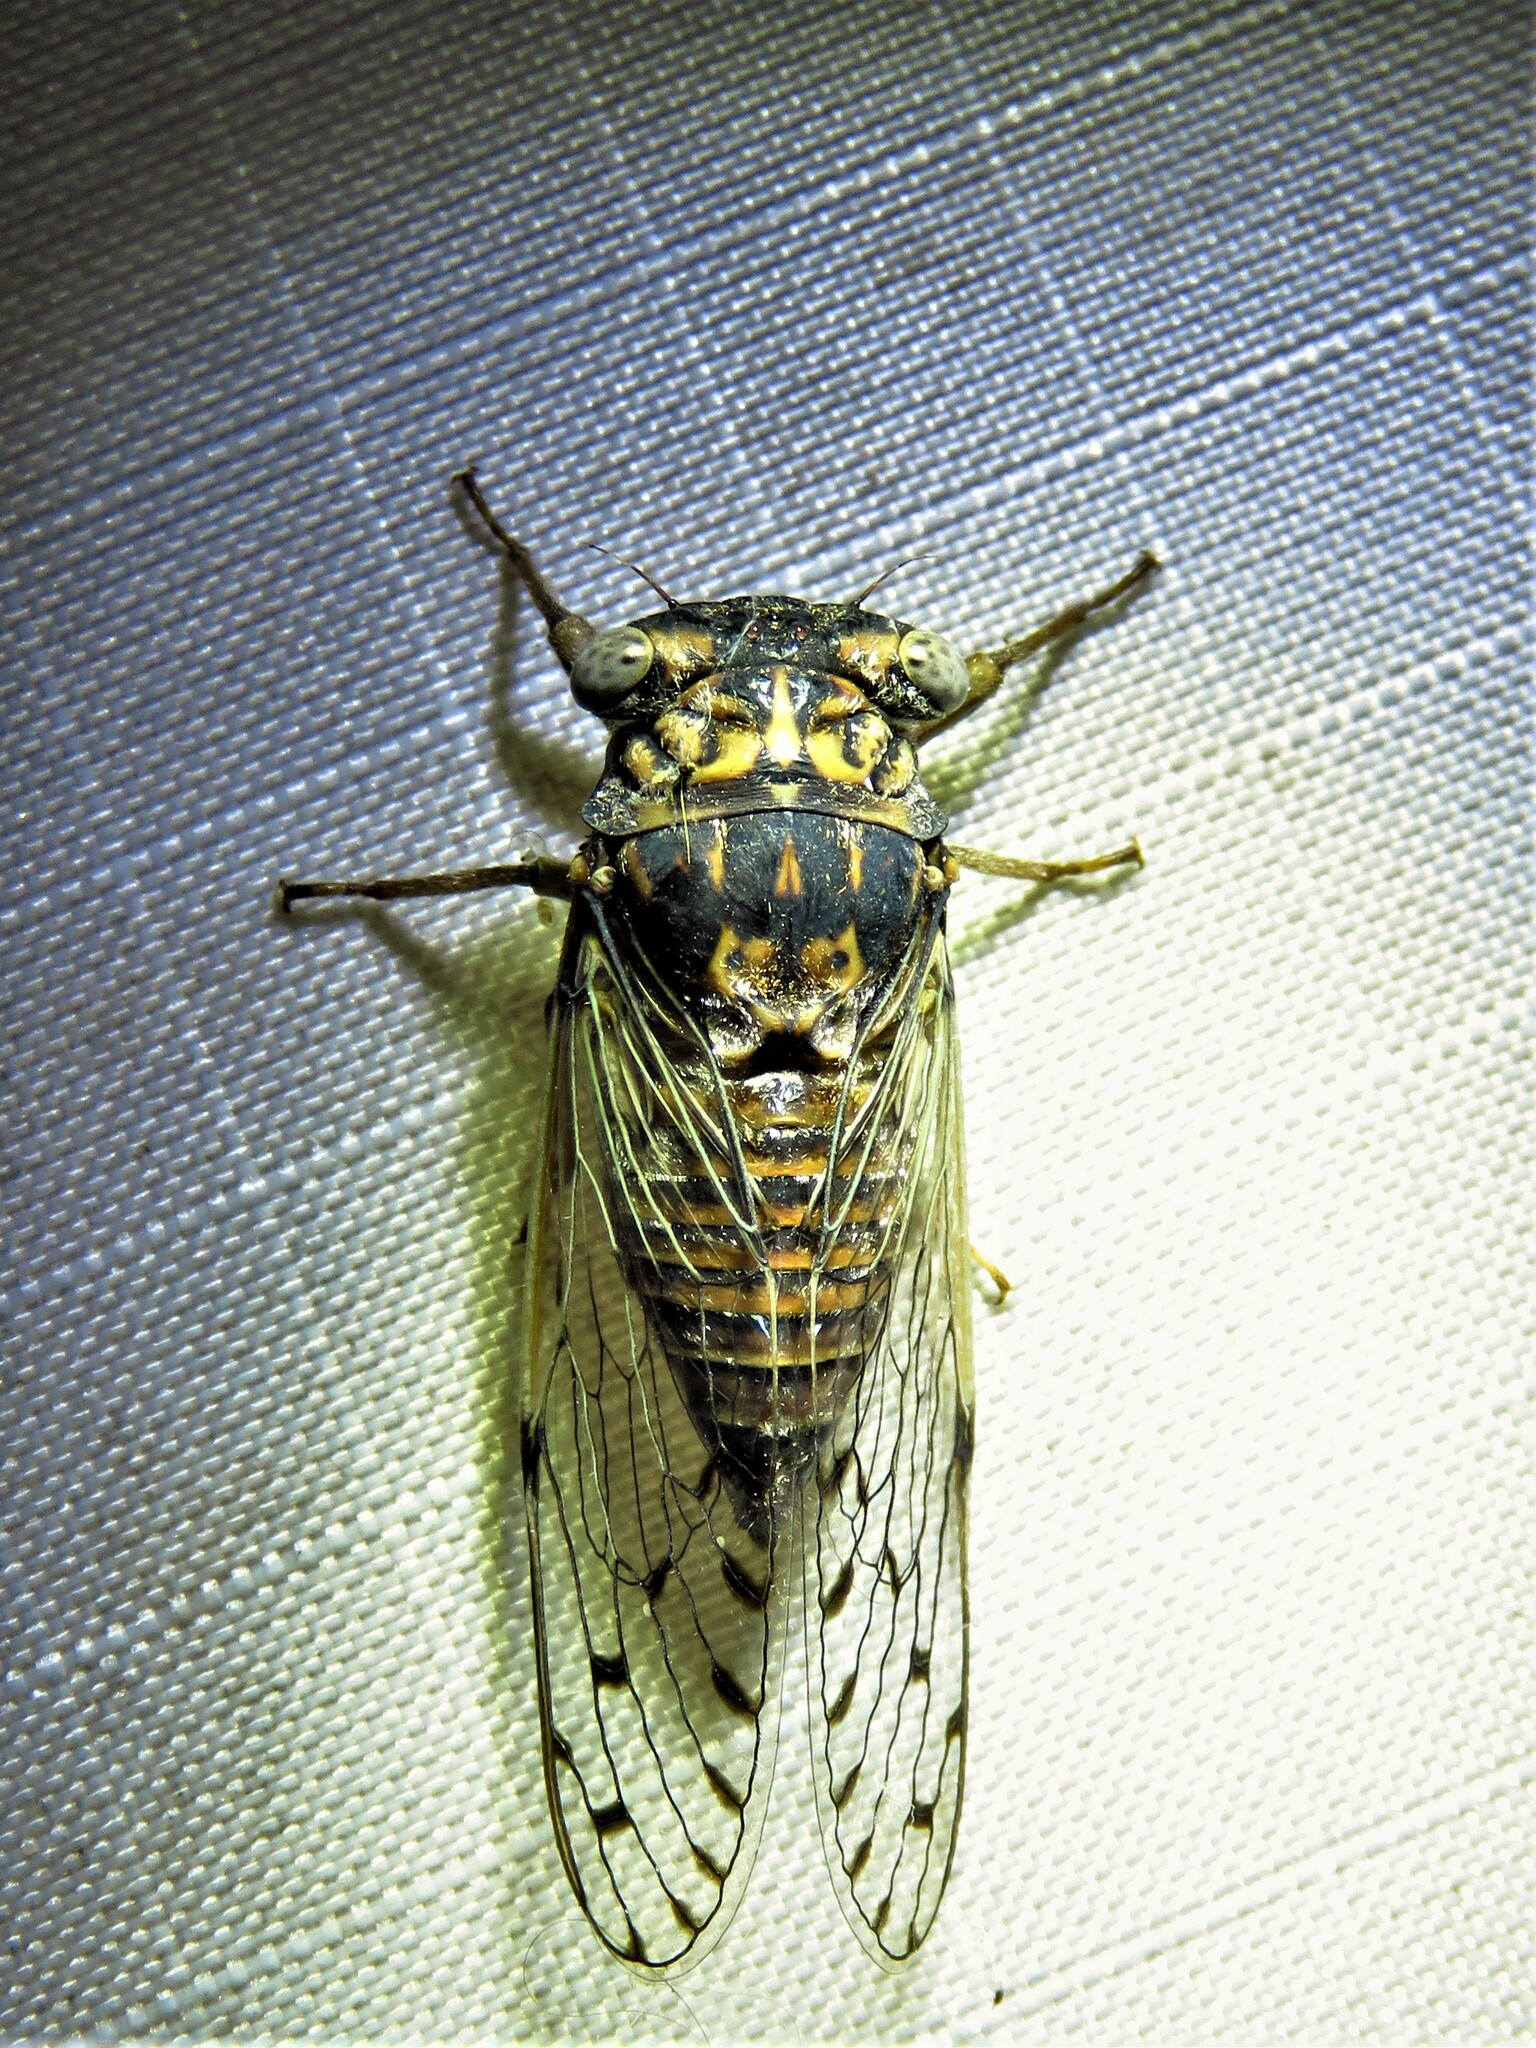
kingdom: Animalia
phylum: Arthropoda
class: Insecta
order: Hemiptera
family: Cicadidae
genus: Pacarina
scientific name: Pacarina puella
